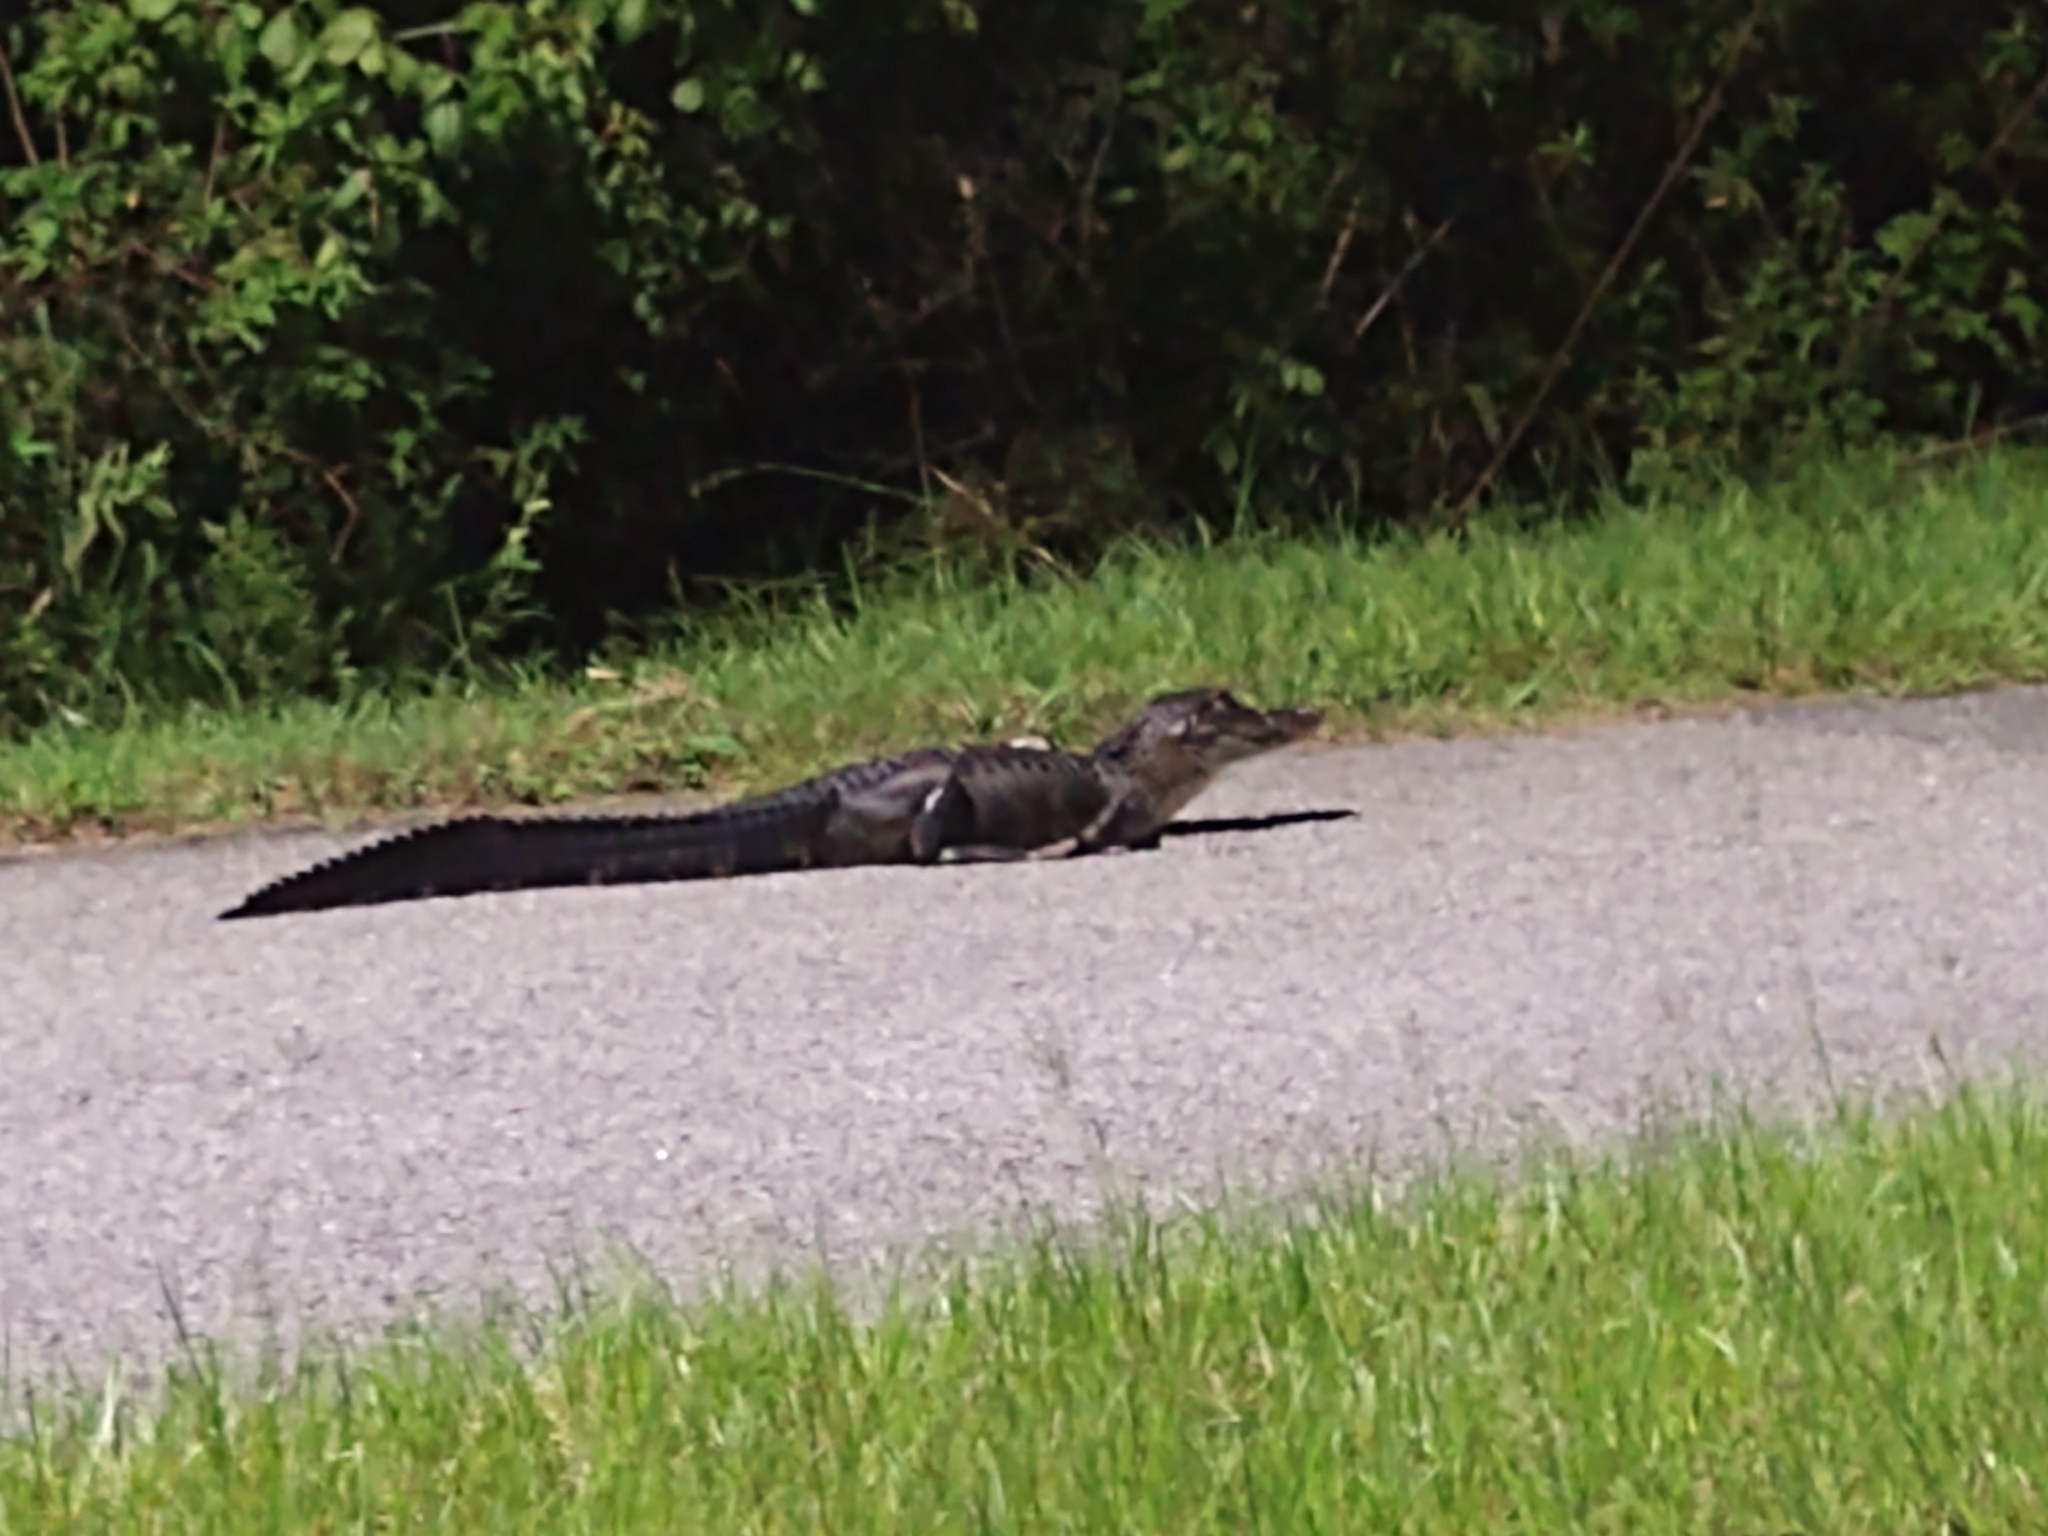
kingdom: Animalia
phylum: Chordata
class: Crocodylia
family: Alligatoridae
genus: Alligator
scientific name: Alligator mississippiensis
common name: American alligator
